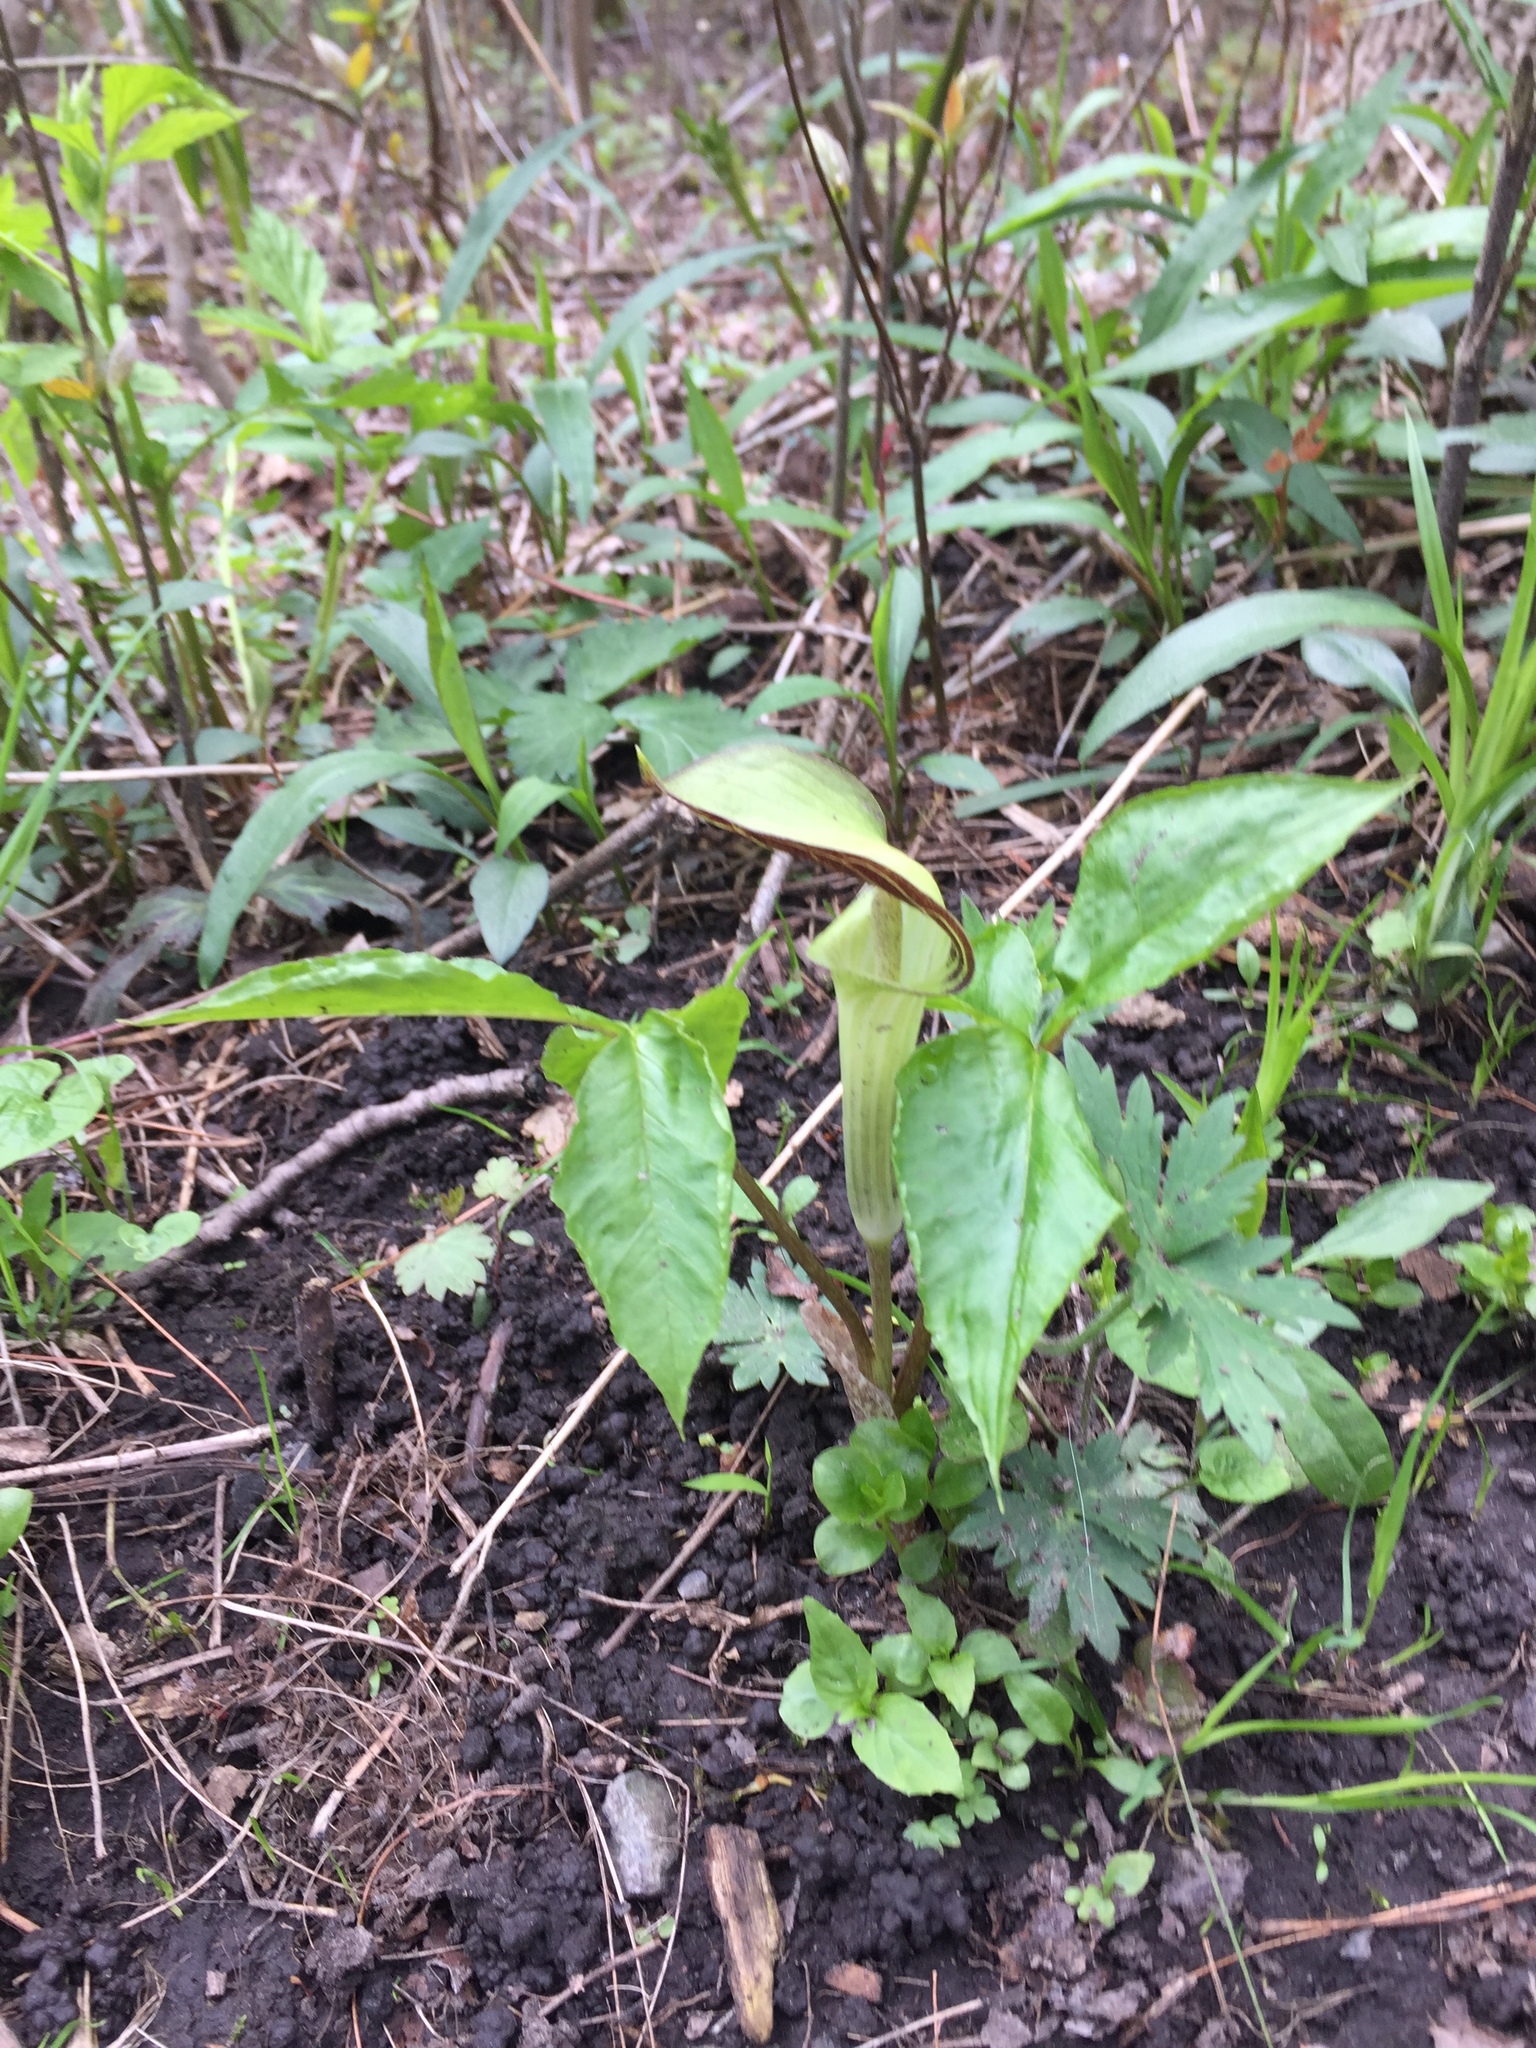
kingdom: Plantae
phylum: Tracheophyta
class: Liliopsida
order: Alismatales
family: Araceae
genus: Arisaema
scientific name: Arisaema triphyllum
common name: Jack-in-the-pulpit
